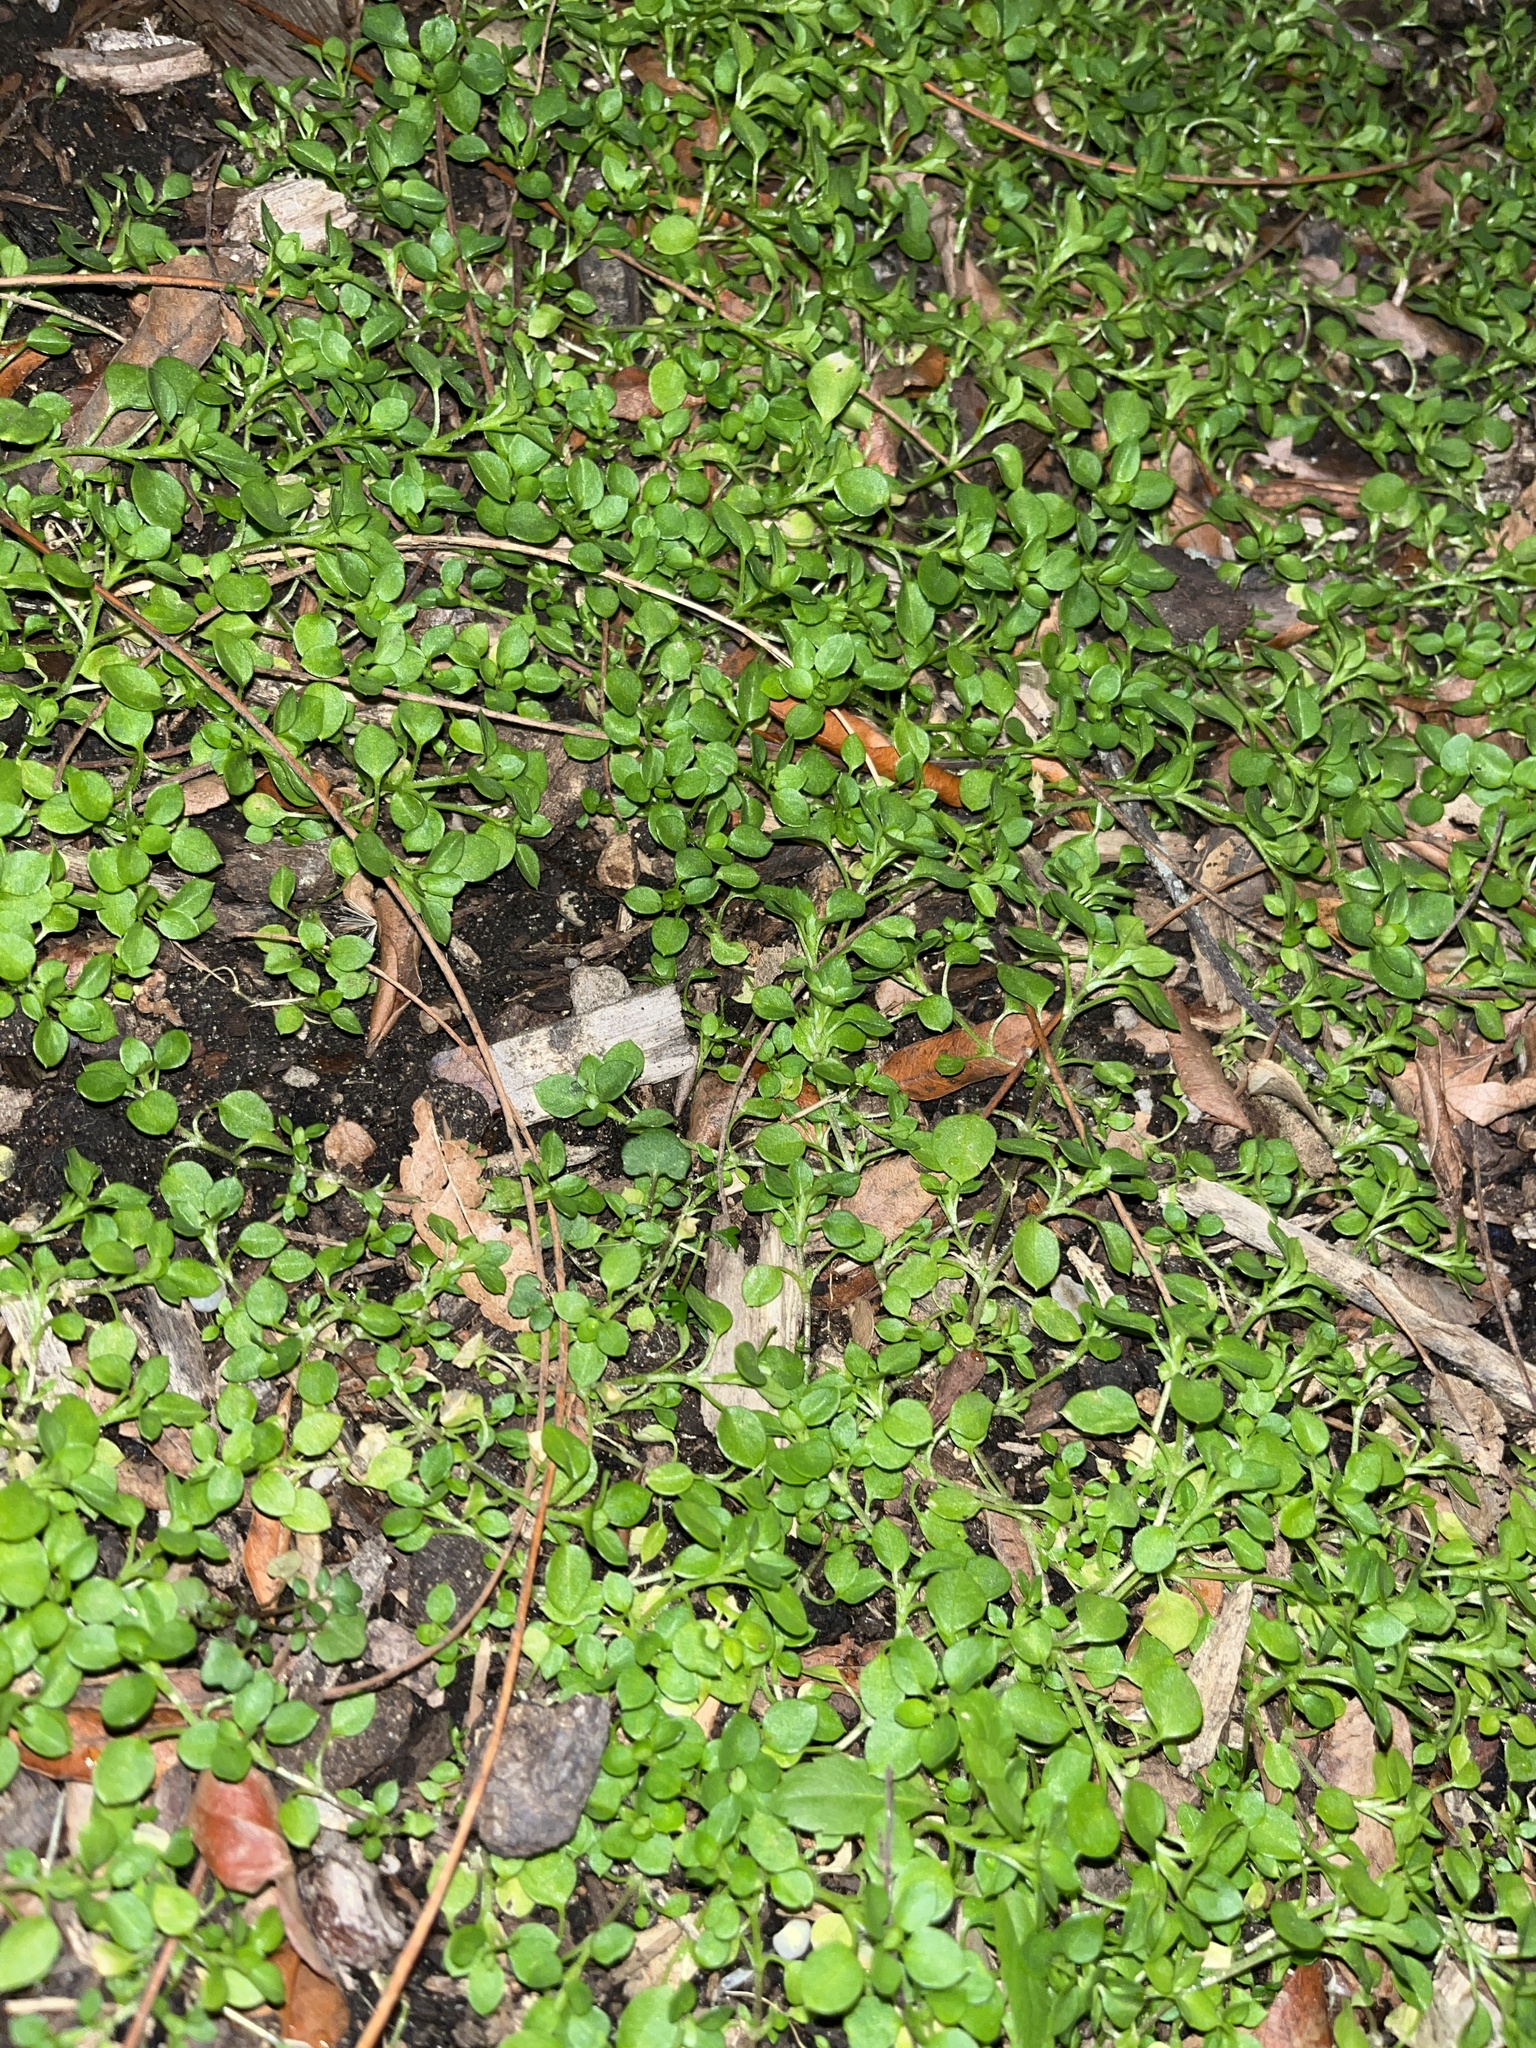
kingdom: Plantae
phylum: Tracheophyta
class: Magnoliopsida
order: Caryophyllales
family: Caryophyllaceae
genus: Stellaria
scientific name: Stellaria media
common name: Common chickweed
